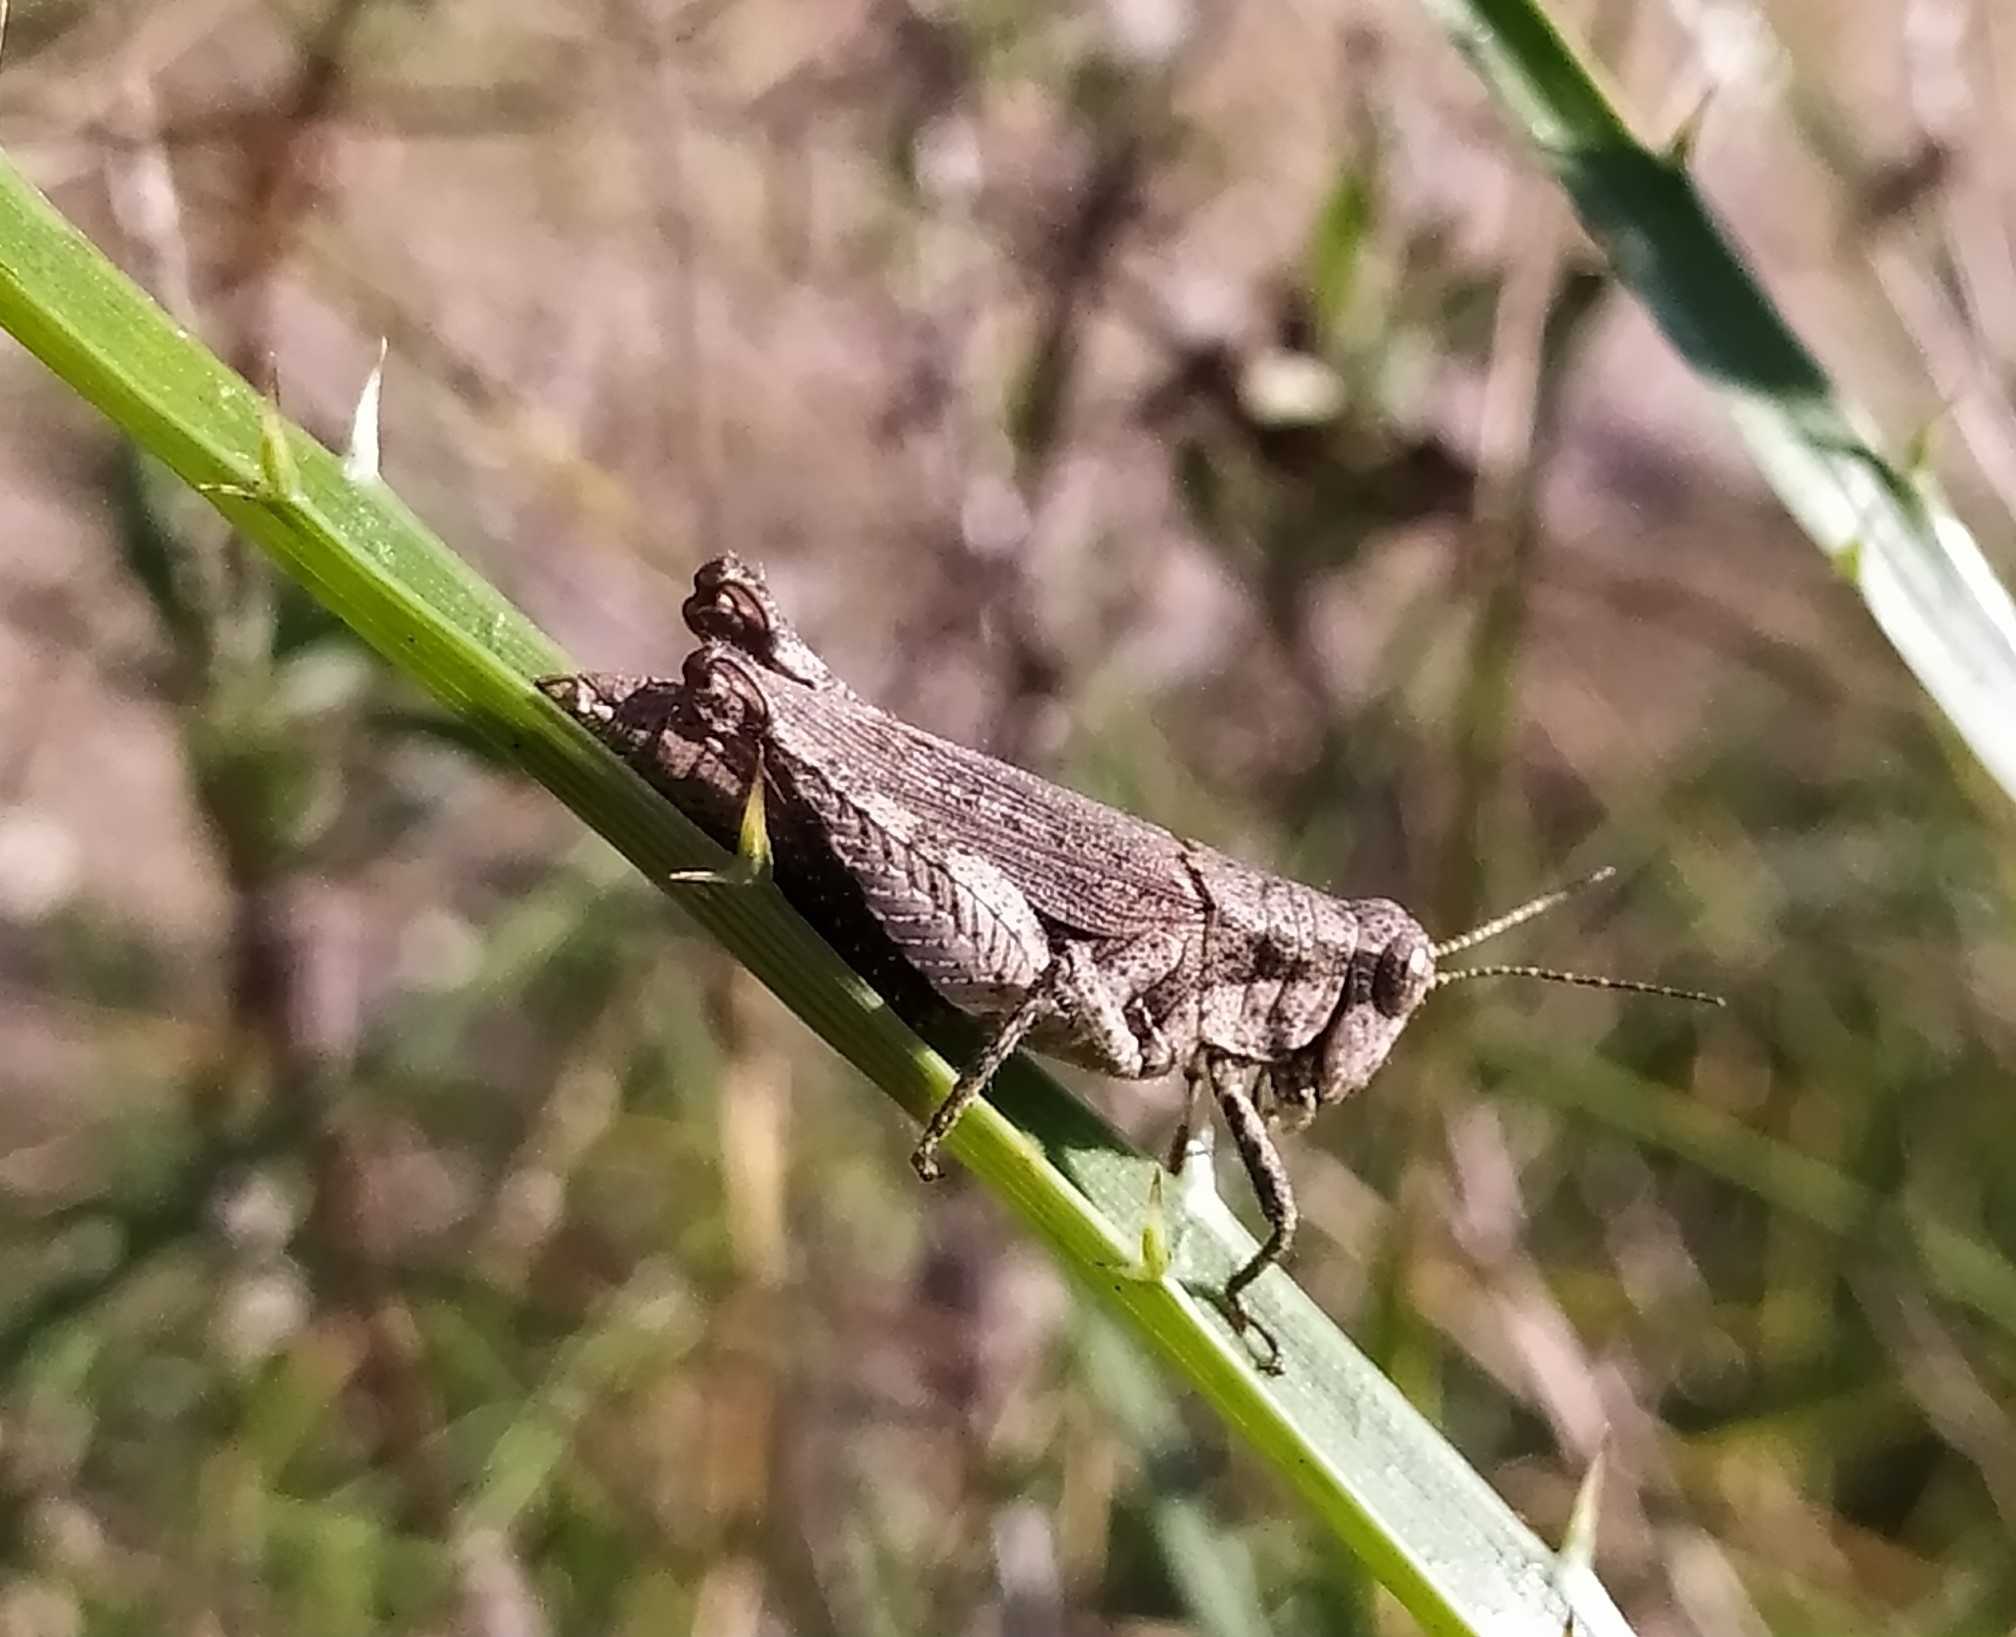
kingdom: Animalia
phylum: Arthropoda
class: Insecta
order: Orthoptera
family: Acrididae
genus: Ronderosia
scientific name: Ronderosia bergii
